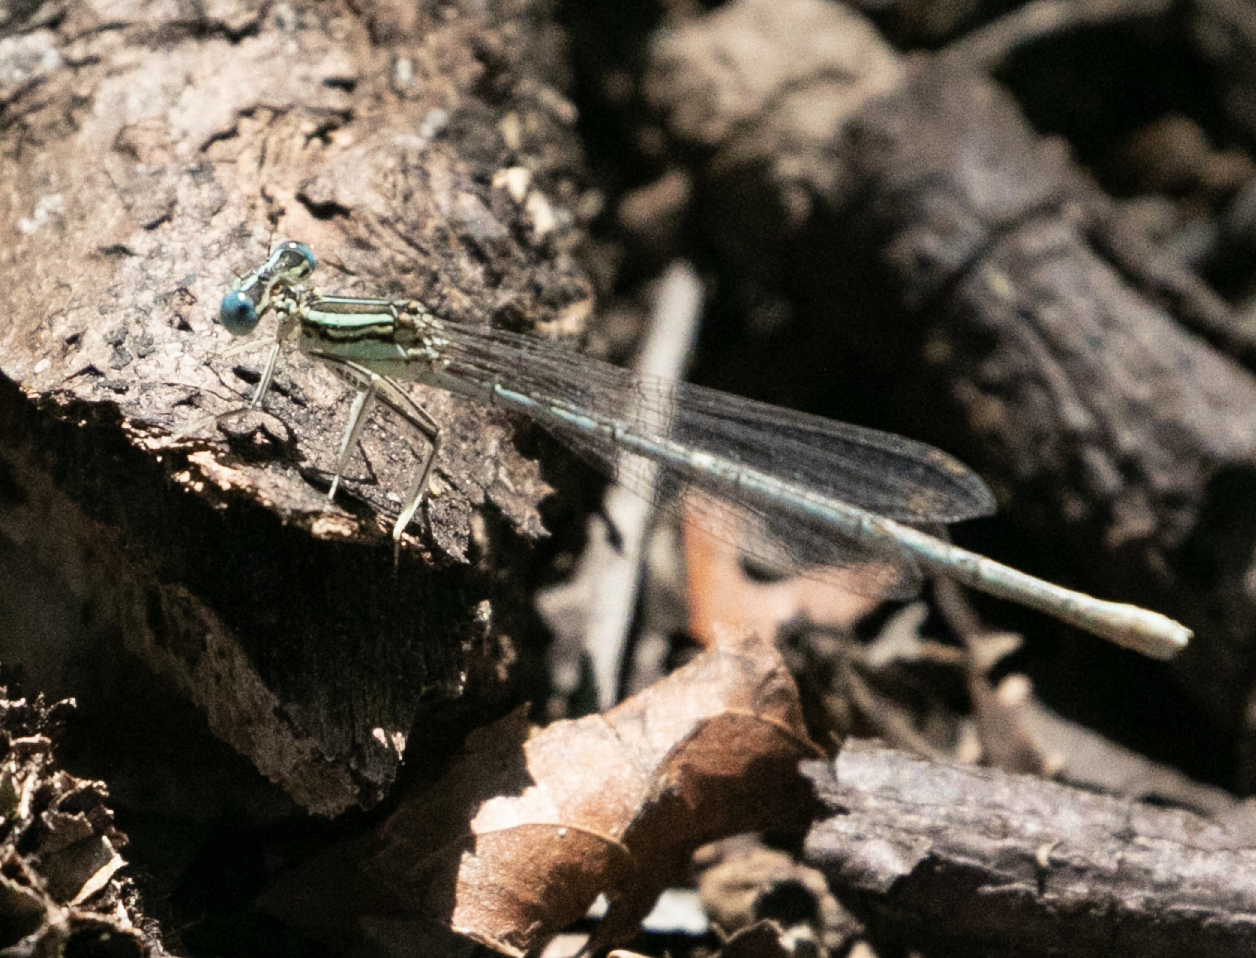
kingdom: Animalia
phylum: Arthropoda
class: Insecta
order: Odonata
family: Platycnemididae
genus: Platycnemis
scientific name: Platycnemis pennipes
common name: White-legged damselfly
